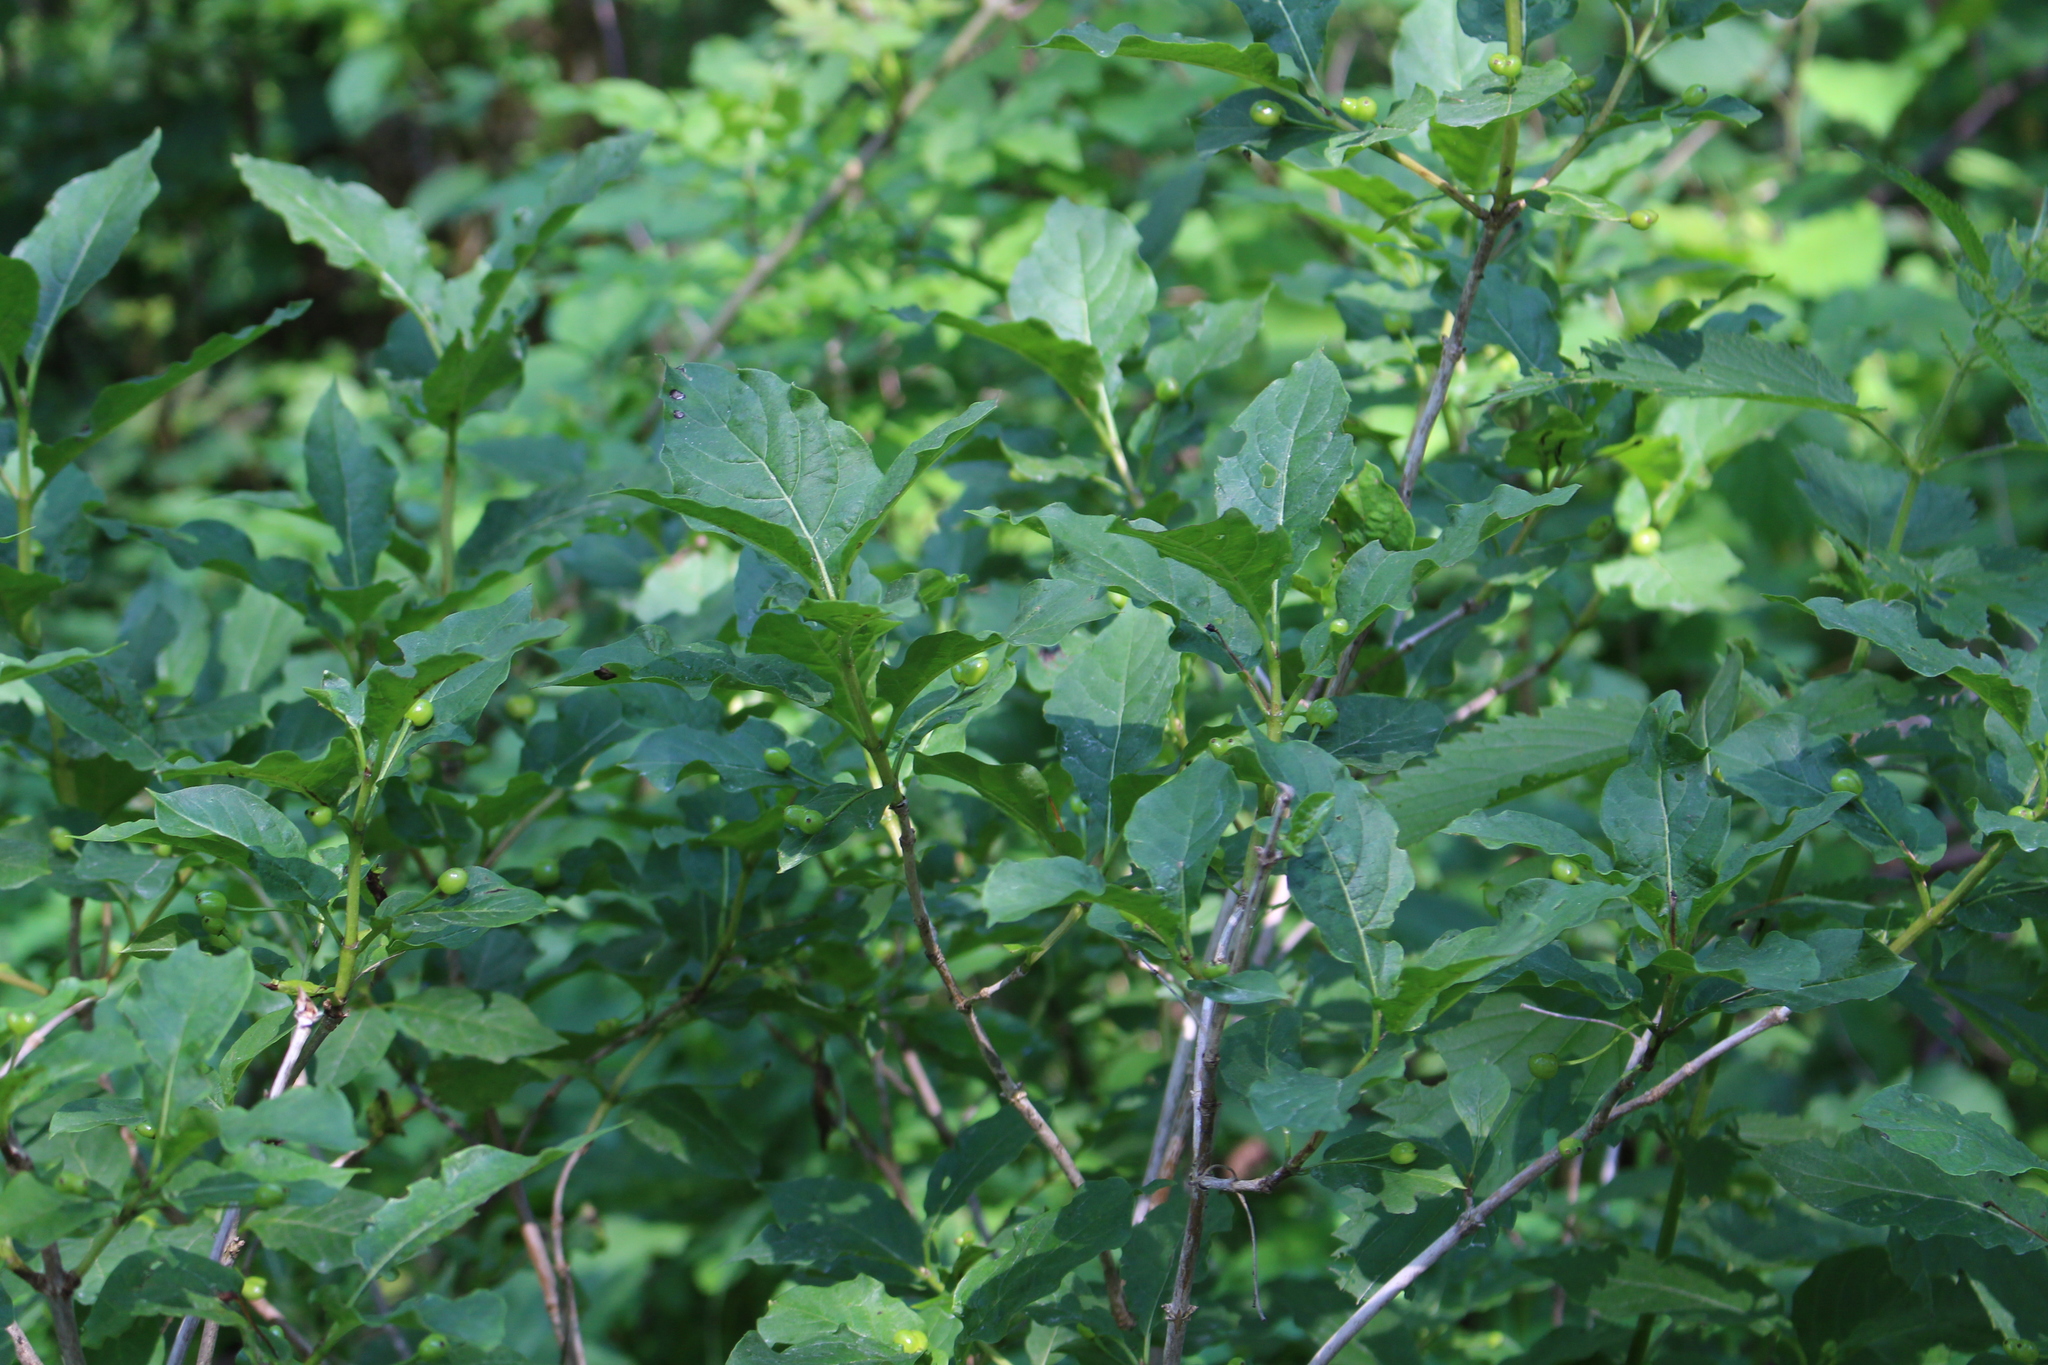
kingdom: Plantae
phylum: Tracheophyta
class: Magnoliopsida
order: Dipsacales
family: Caprifoliaceae
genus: Lonicera
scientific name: Lonicera alpigena
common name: Alpine honeysuckle
